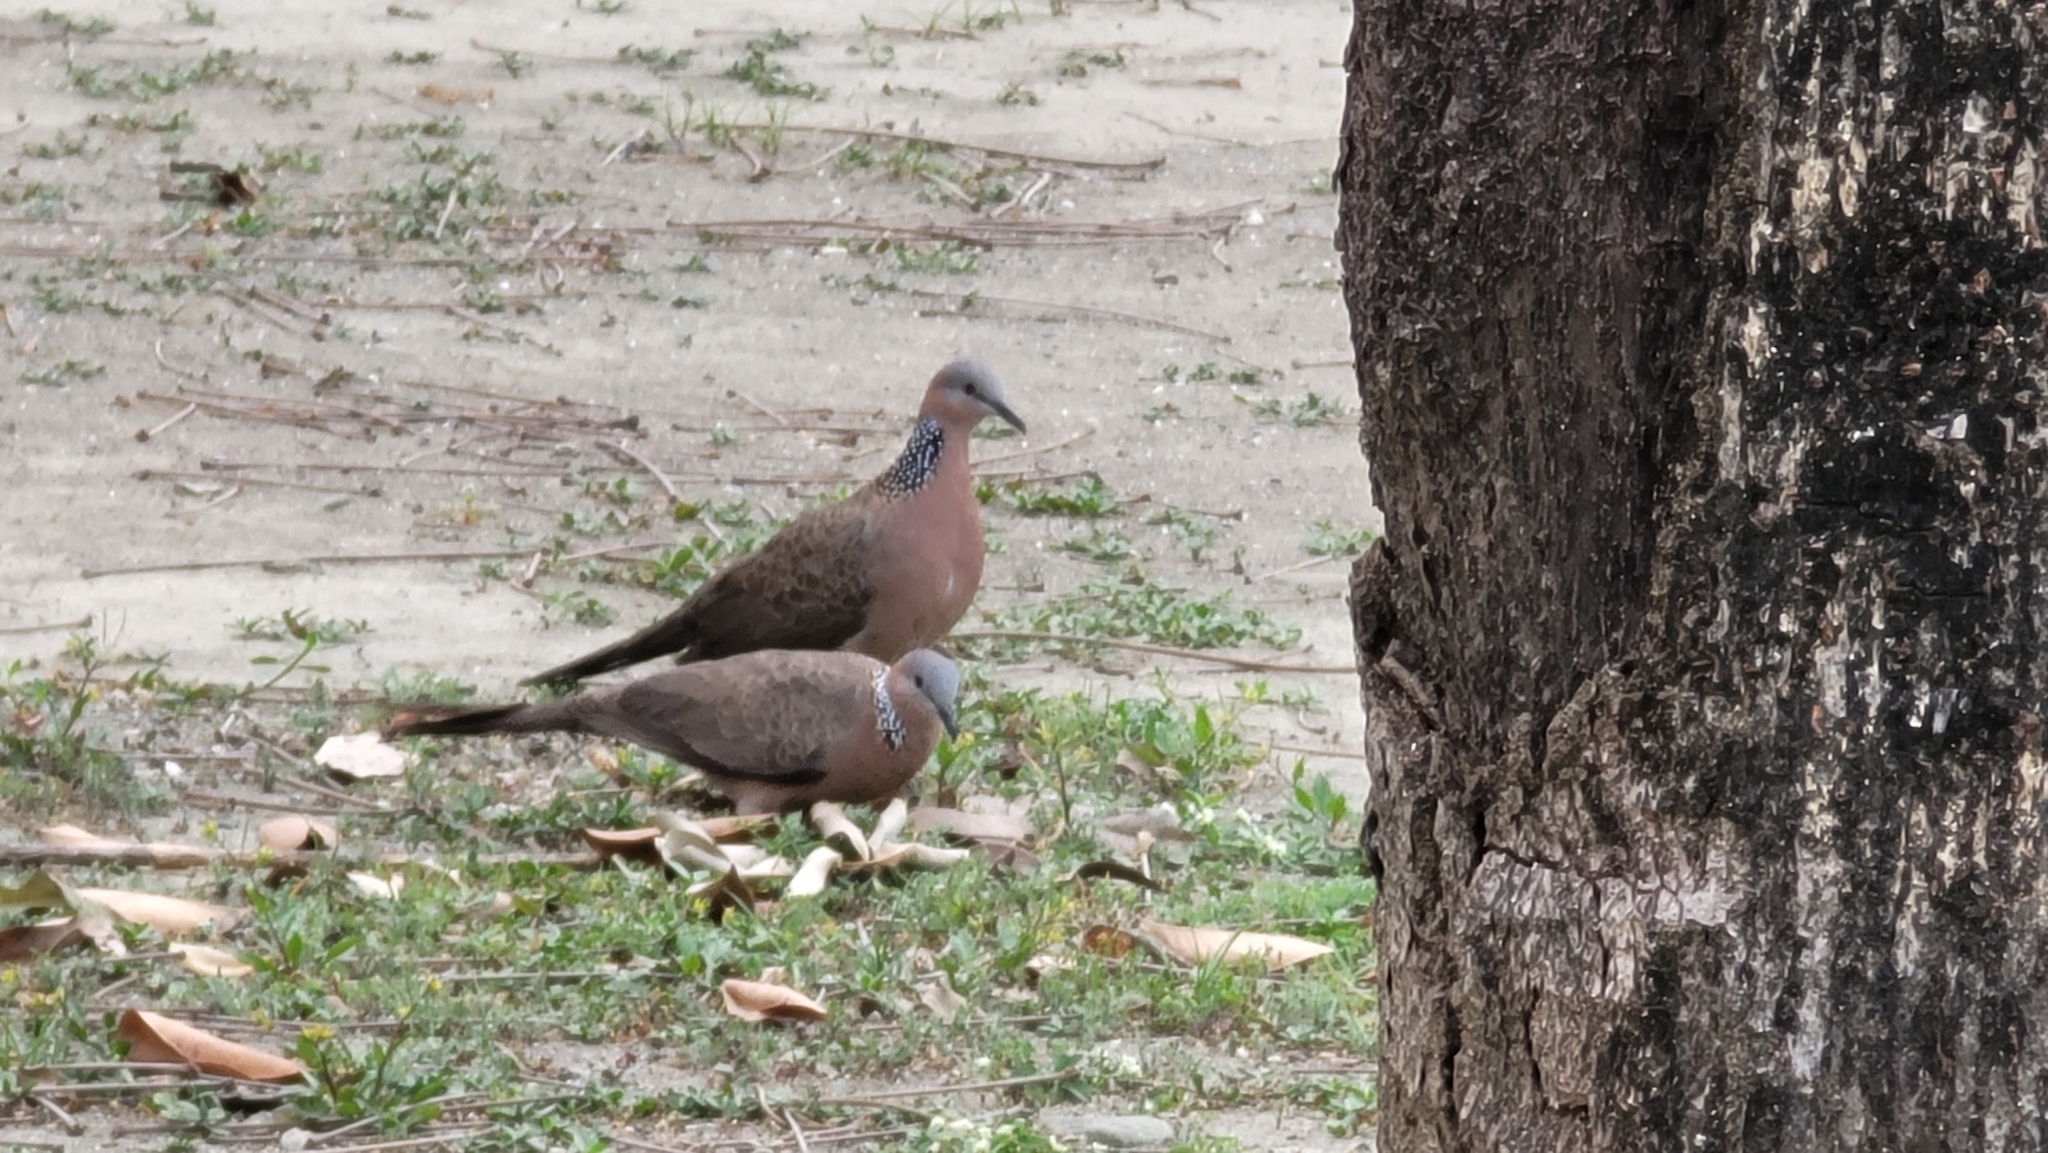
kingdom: Animalia
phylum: Chordata
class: Aves
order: Columbiformes
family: Columbidae
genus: Spilopelia
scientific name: Spilopelia chinensis
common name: Spotted dove
